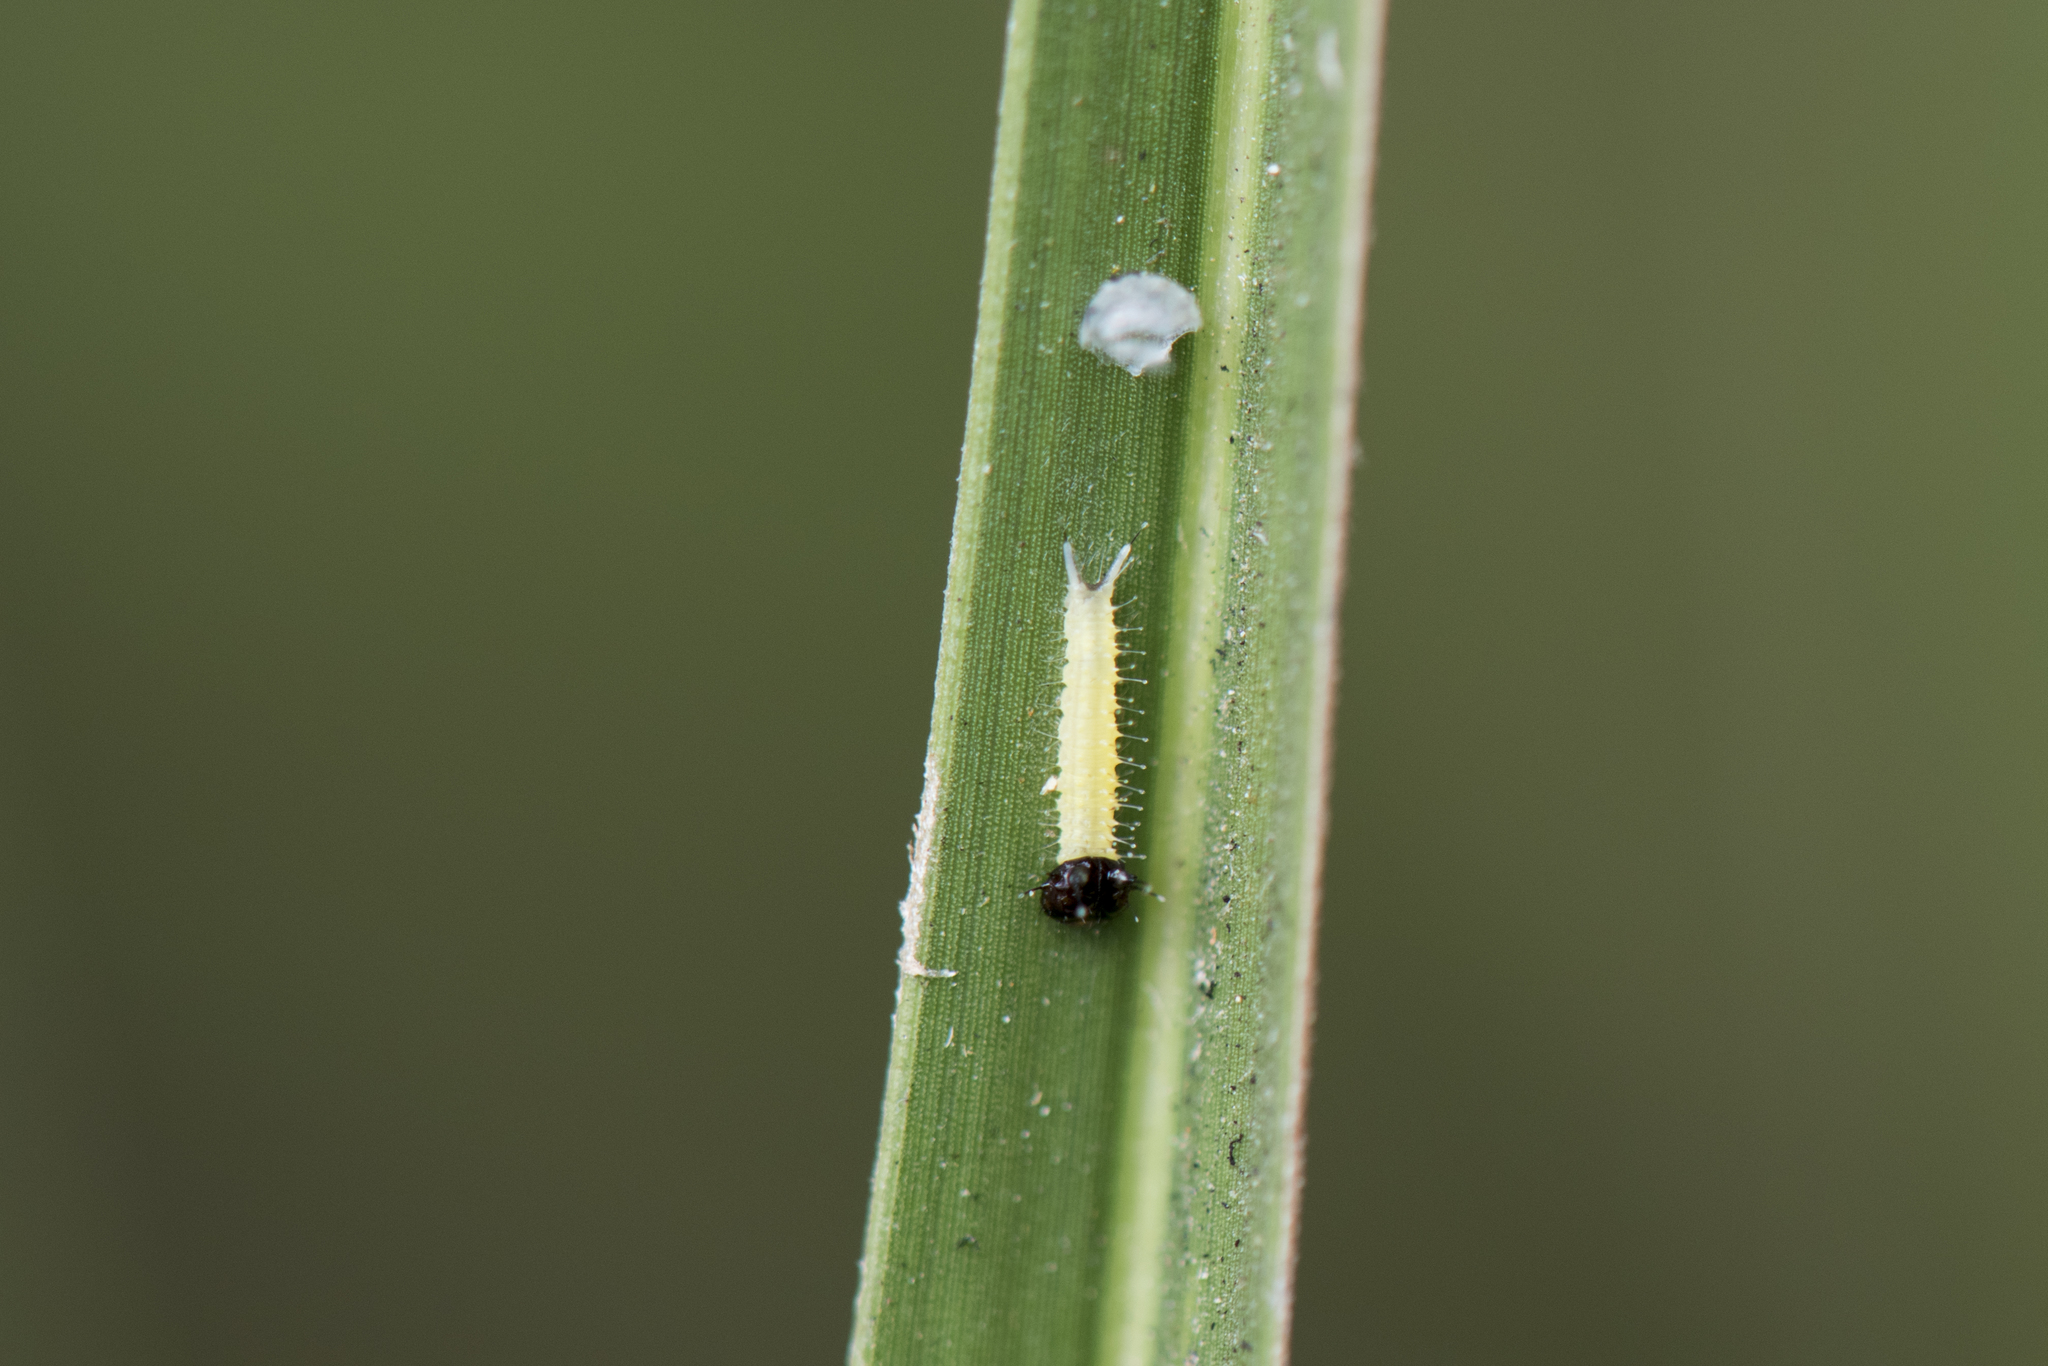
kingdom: Animalia
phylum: Arthropoda
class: Insecta
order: Lepidoptera
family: Nymphalidae
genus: Elymnias
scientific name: Elymnias hypermnestra
